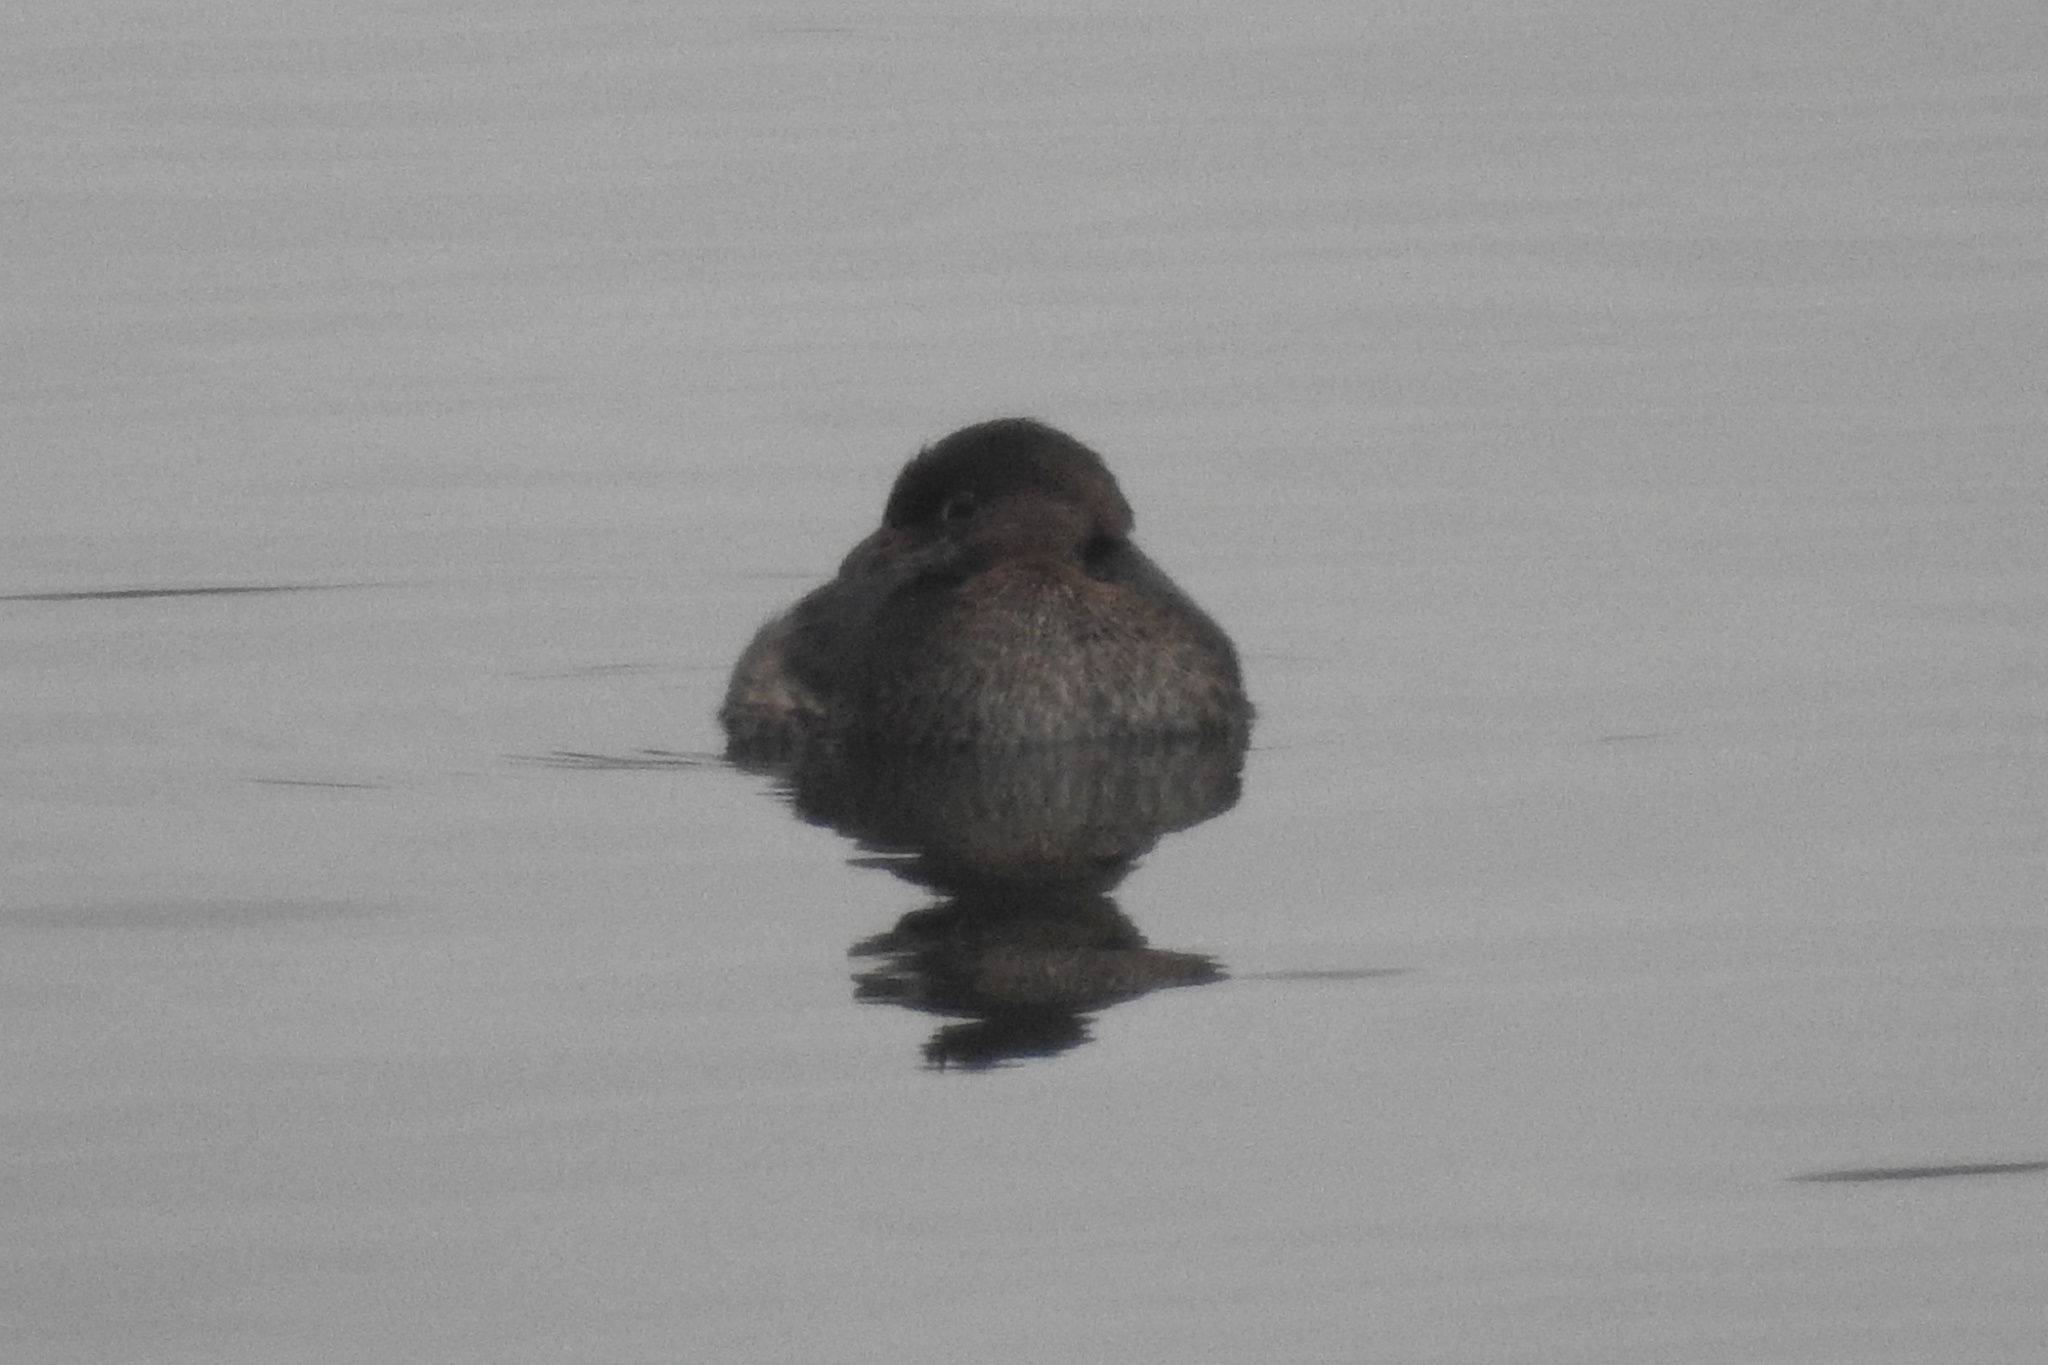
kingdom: Animalia
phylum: Chordata
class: Aves
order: Podicipediformes
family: Podicipedidae
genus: Podilymbus
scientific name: Podilymbus podiceps
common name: Pied-billed grebe
